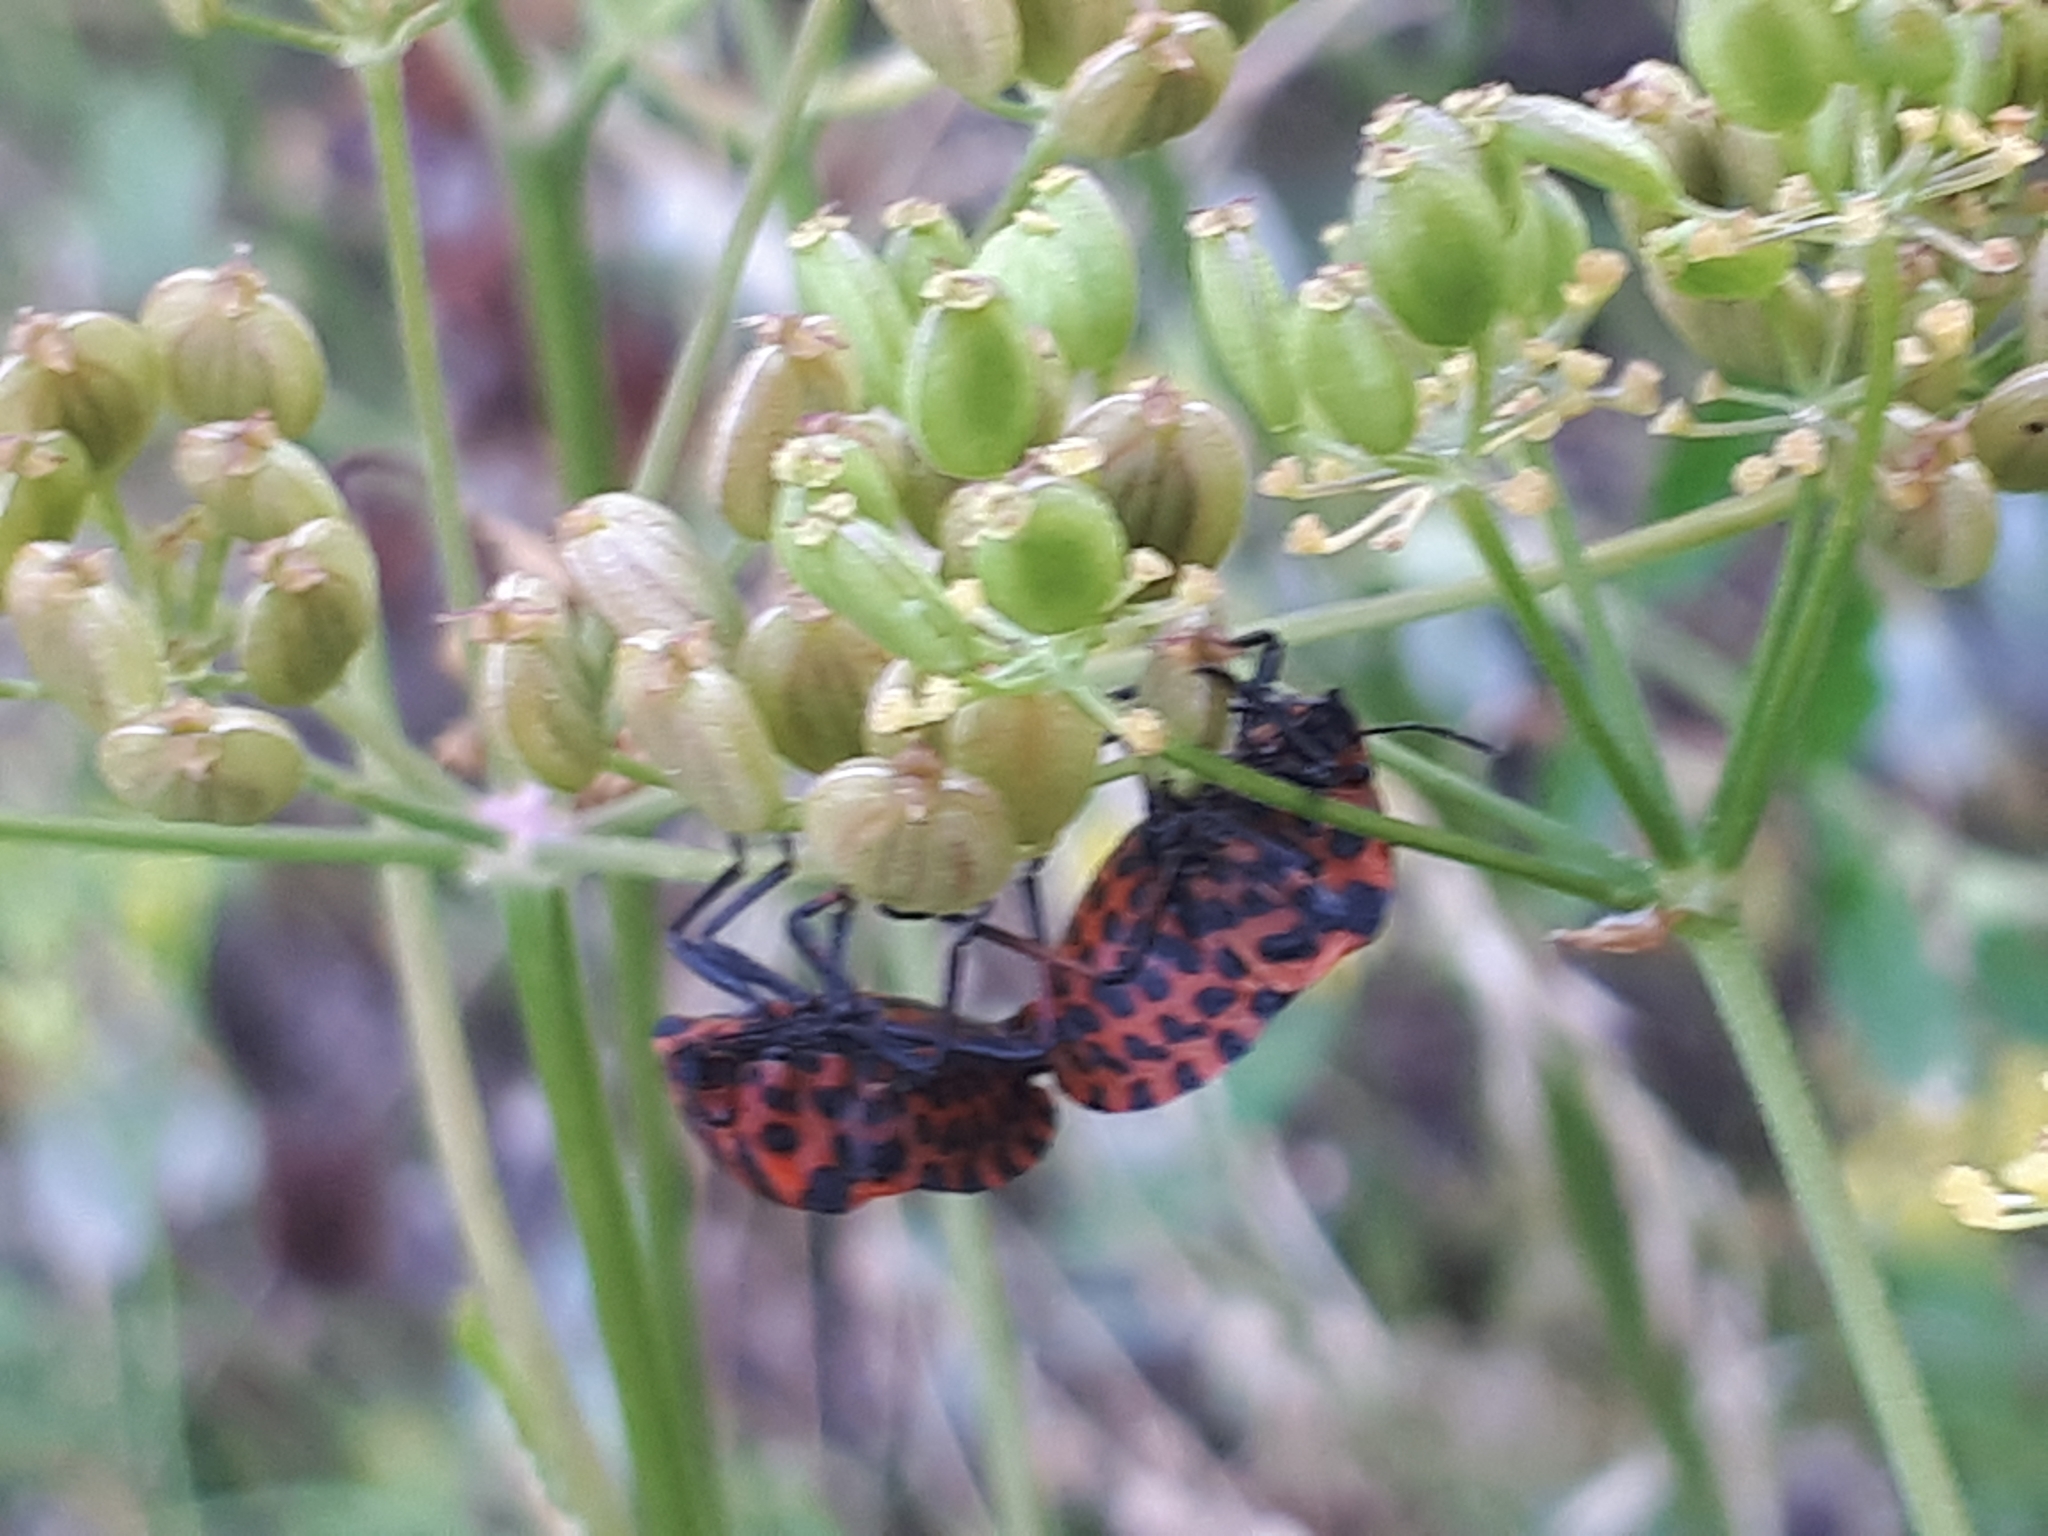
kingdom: Animalia
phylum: Arthropoda
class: Insecta
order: Hemiptera
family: Pentatomidae
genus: Graphosoma
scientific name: Graphosoma italicum
